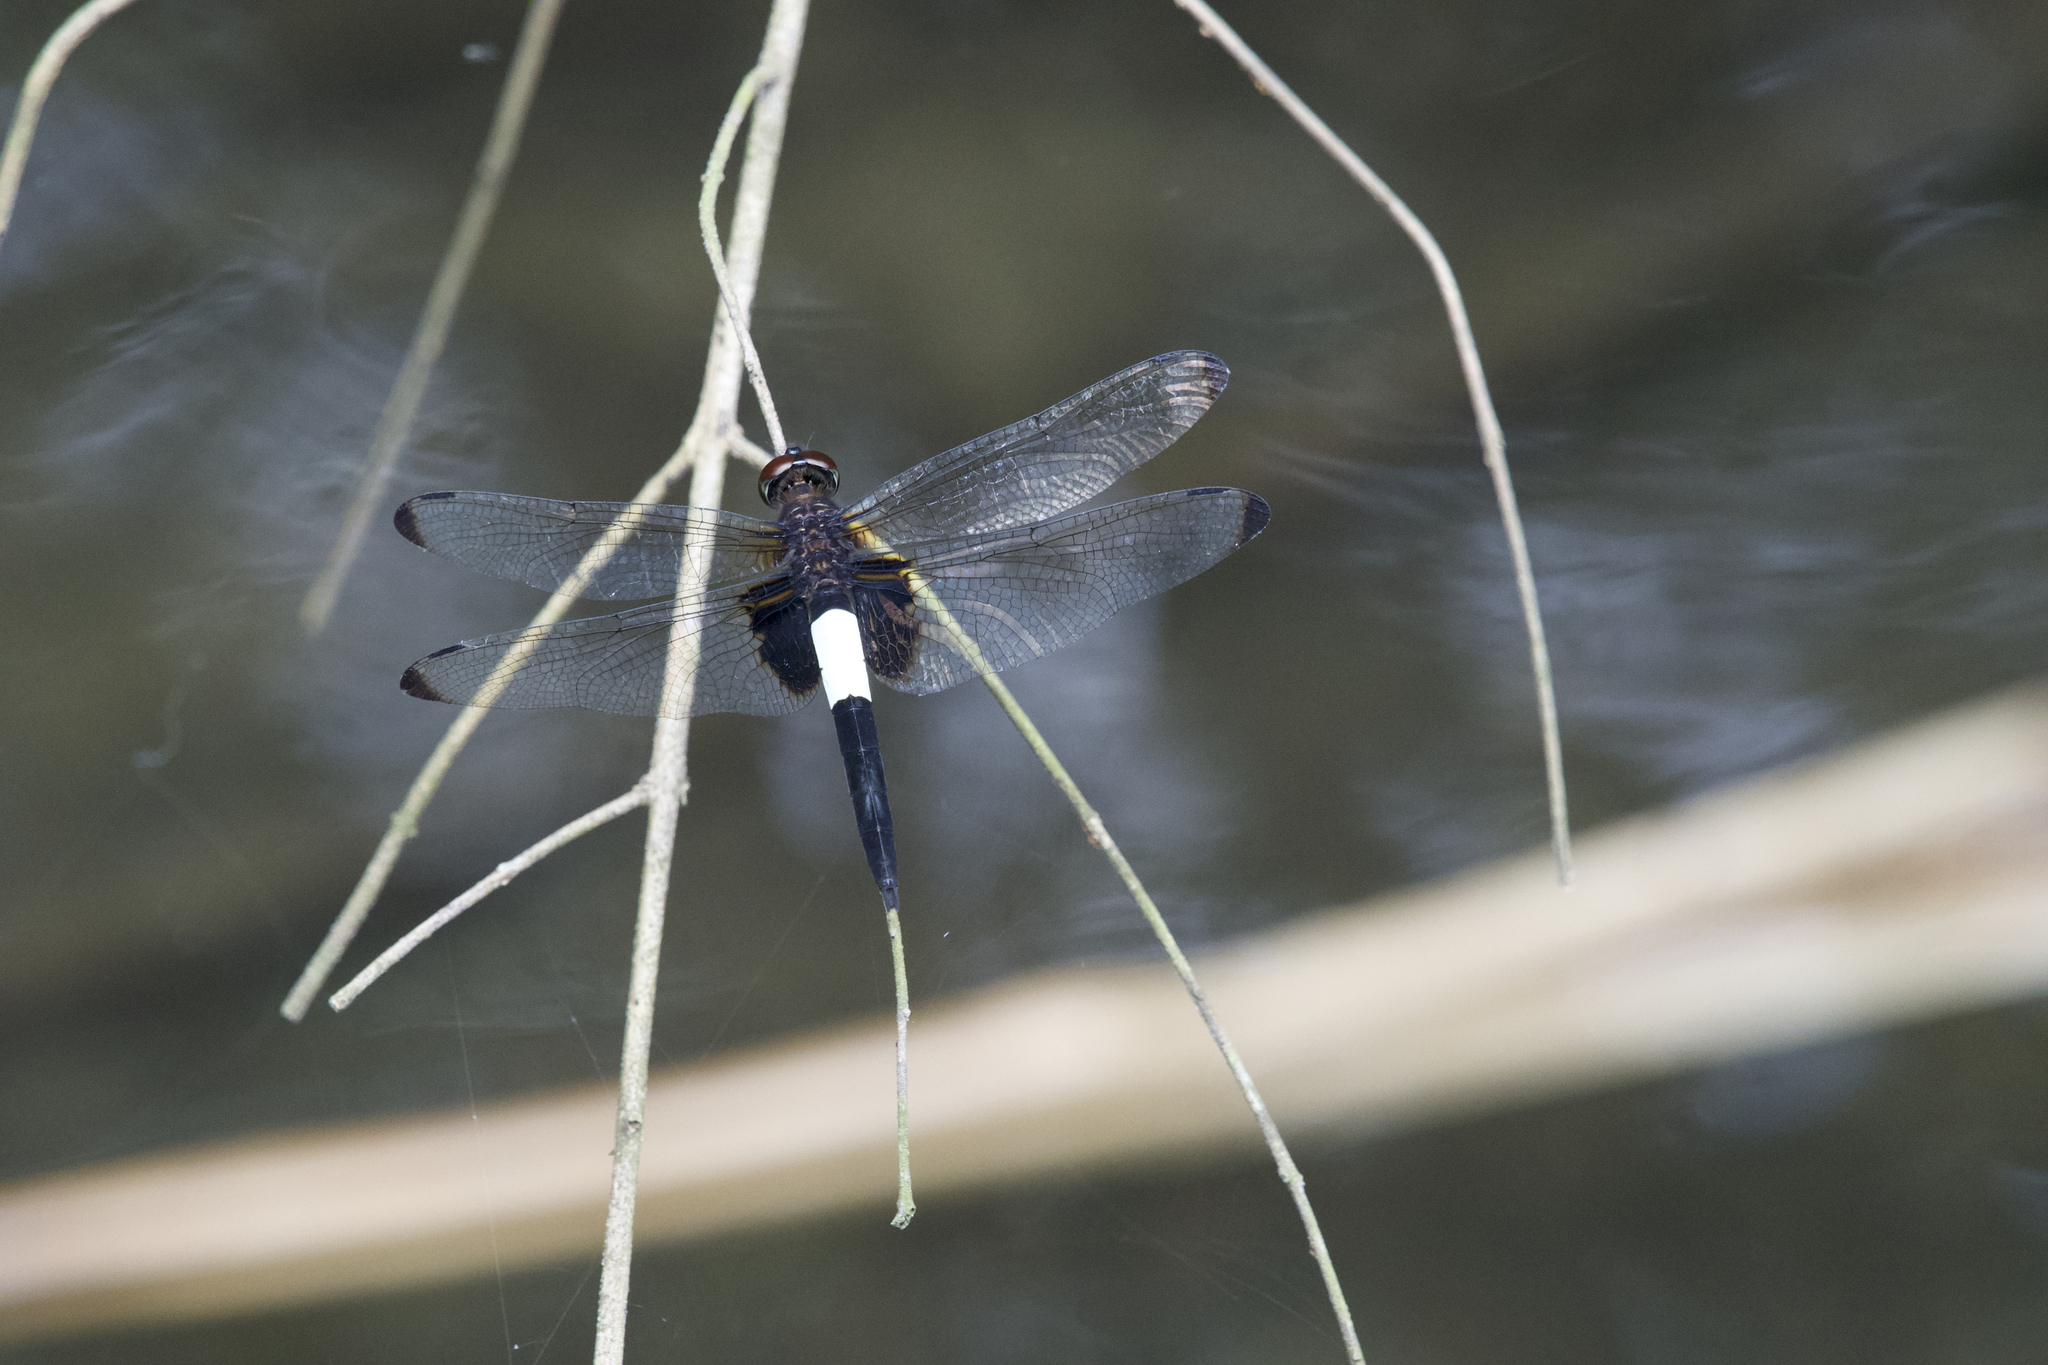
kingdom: Animalia
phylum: Arthropoda
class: Insecta
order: Odonata
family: Libellulidae
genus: Pseudothemis
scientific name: Pseudothemis zonata
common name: Pied skimmer
